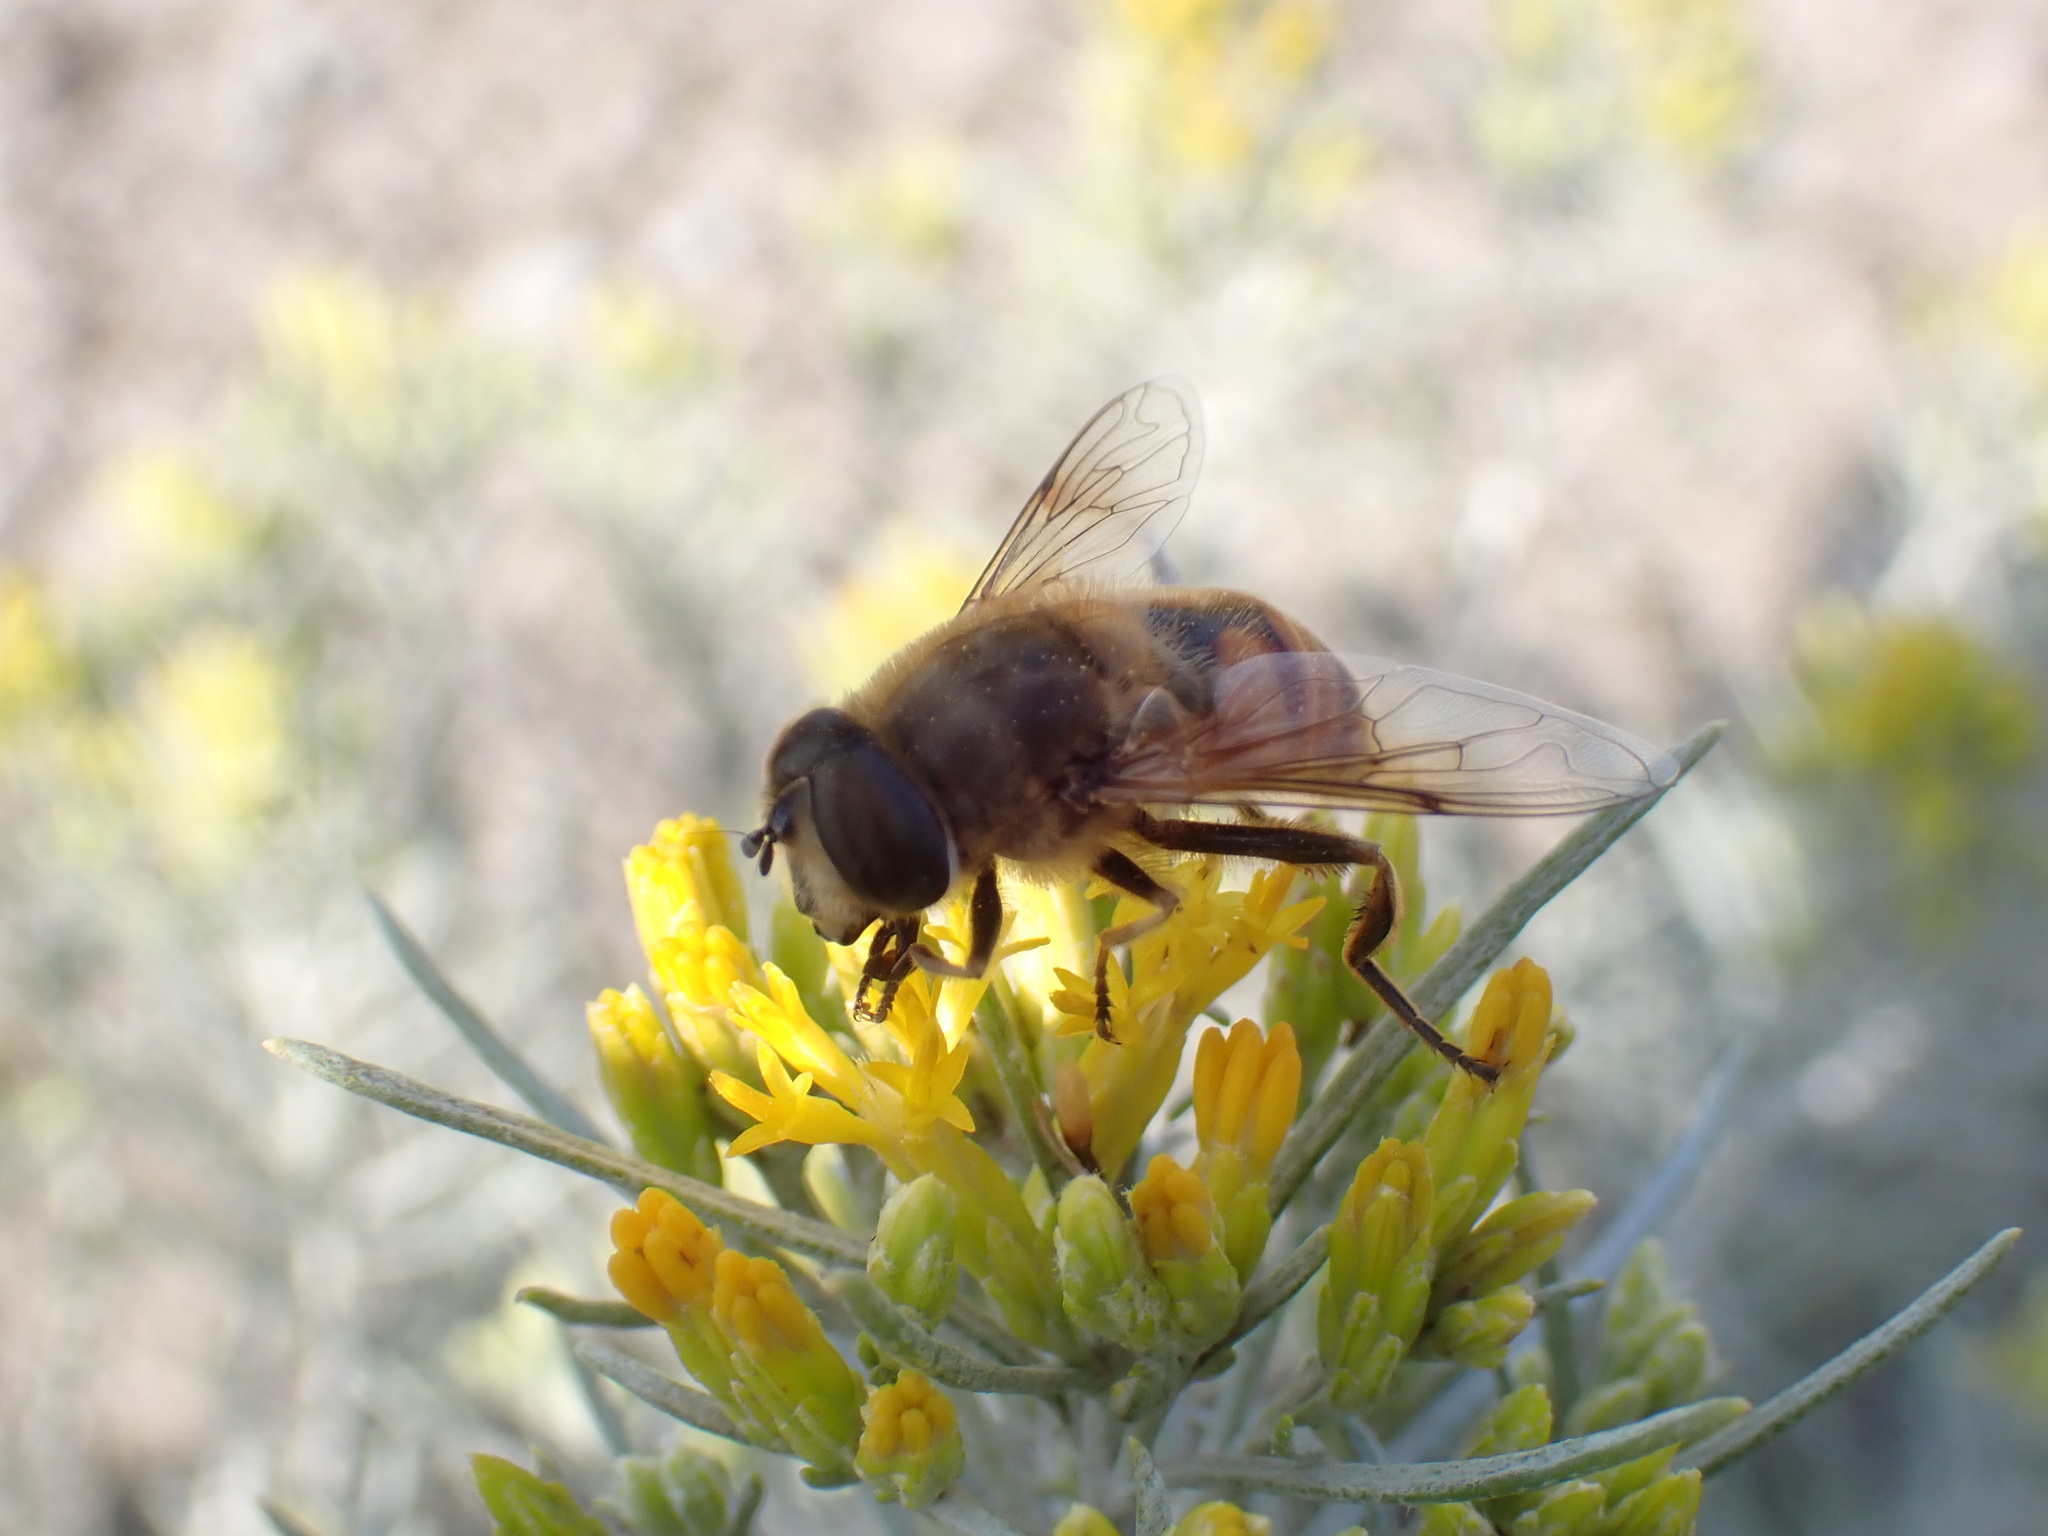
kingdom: Animalia
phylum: Arthropoda
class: Insecta
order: Diptera
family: Syrphidae
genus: Eristalis
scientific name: Eristalis tenax
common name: Drone fly
